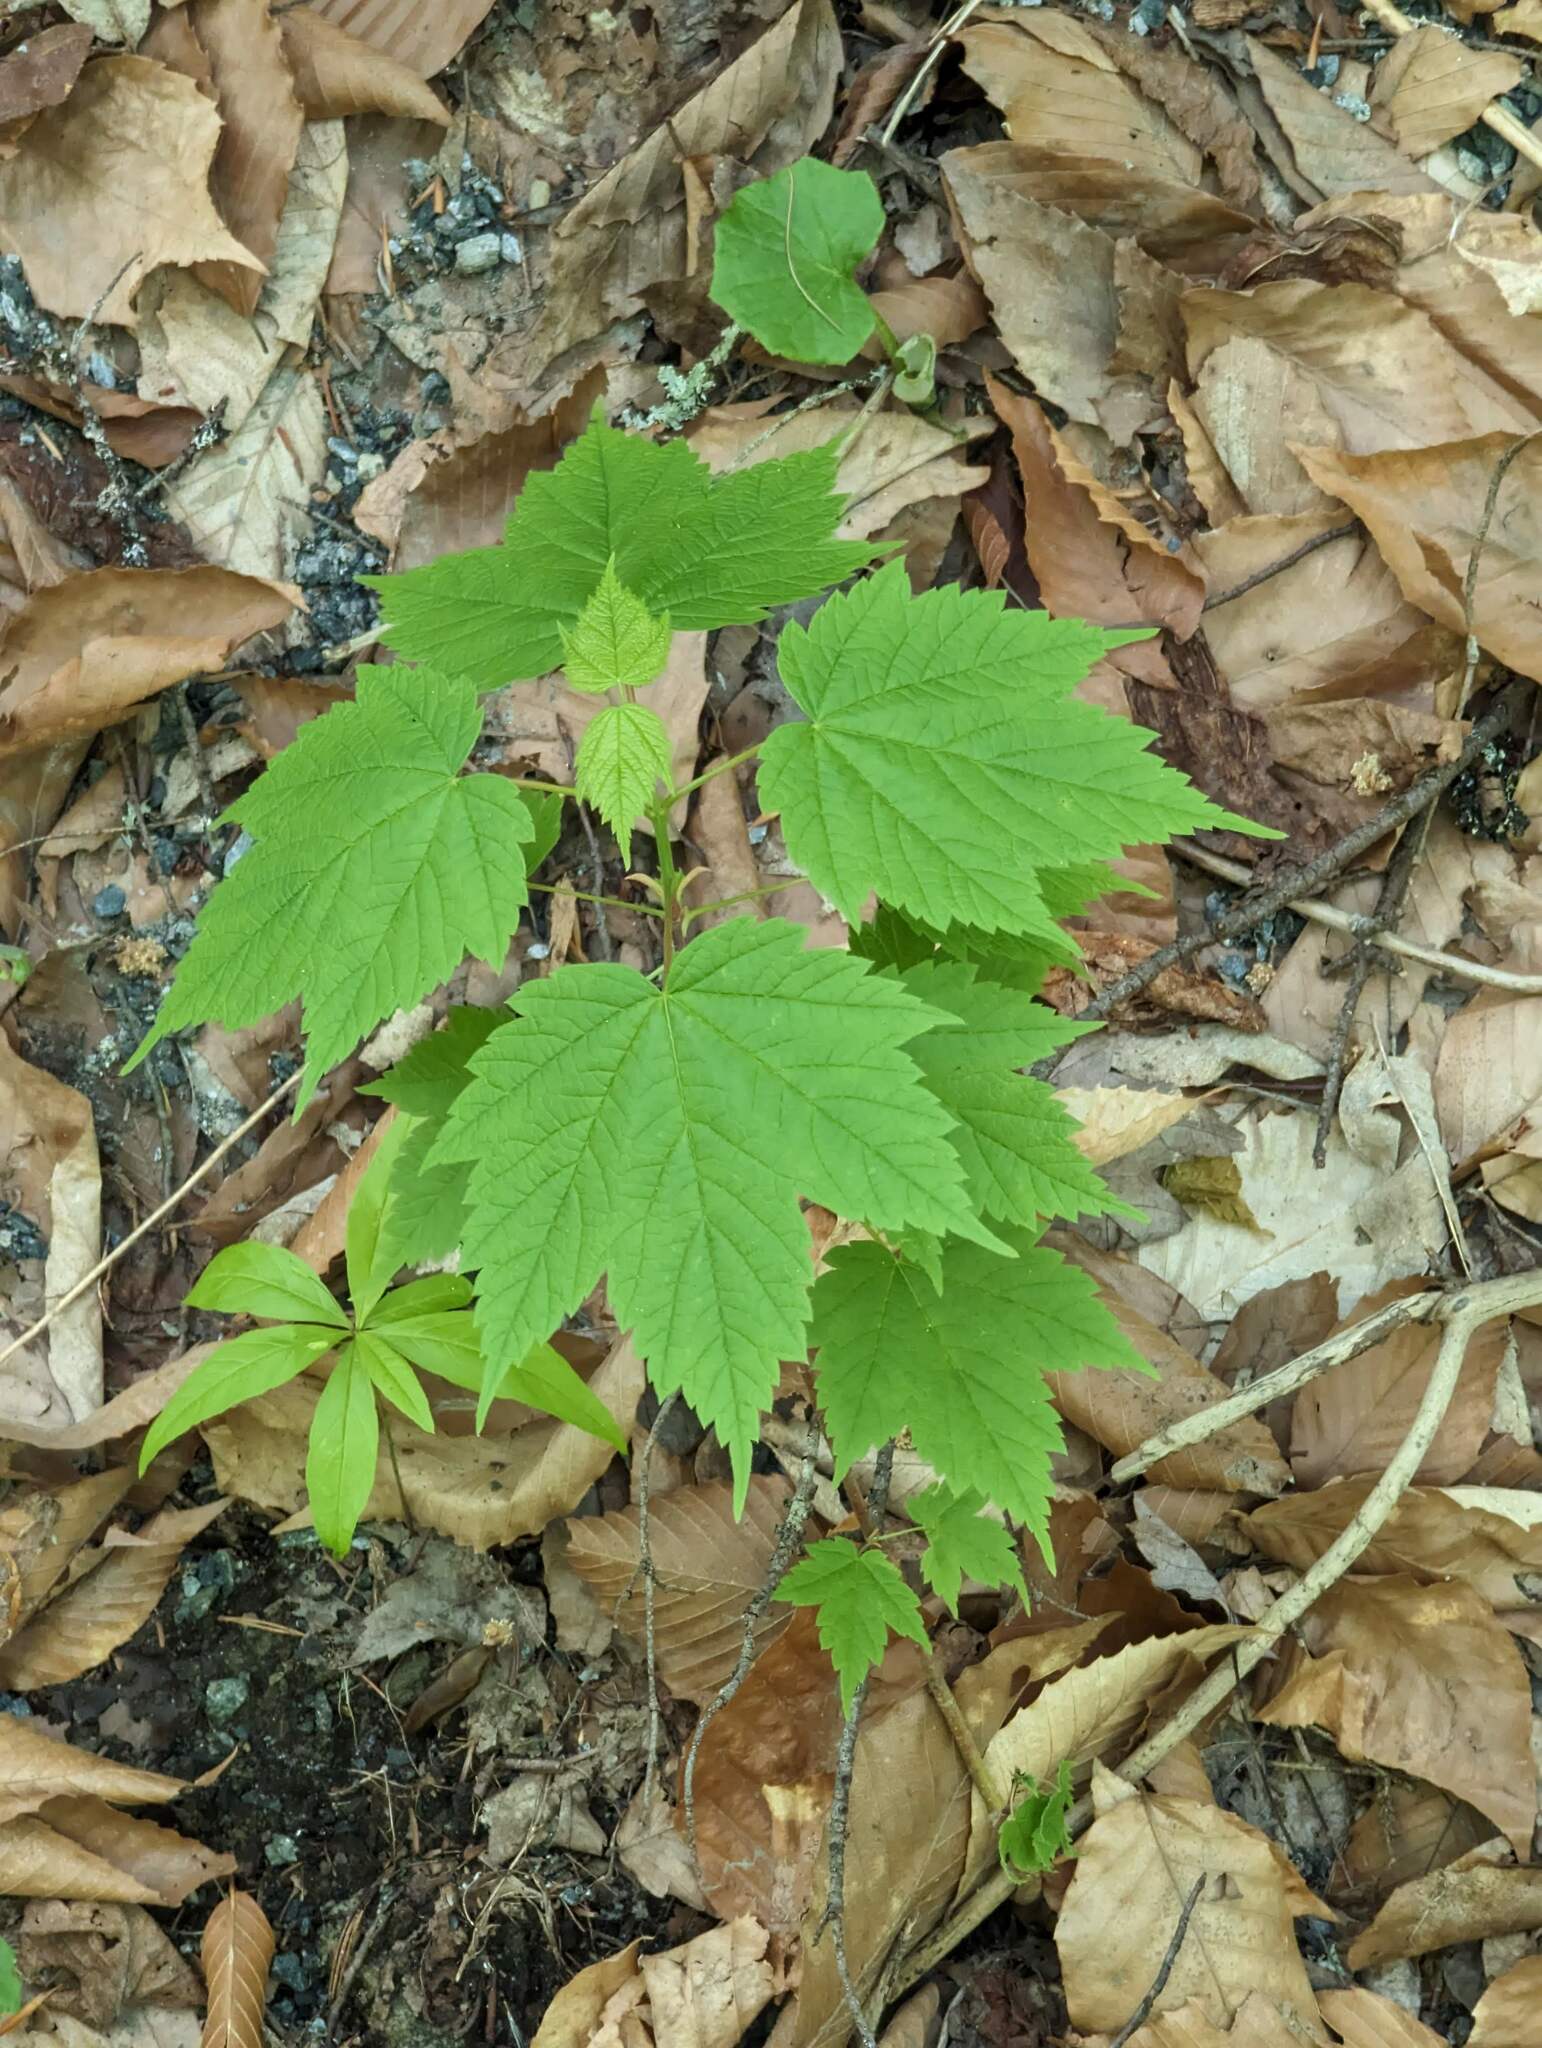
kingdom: Plantae
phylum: Tracheophyta
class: Magnoliopsida
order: Sapindales
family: Sapindaceae
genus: Acer
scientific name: Acer spicatum
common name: Mountain maple
